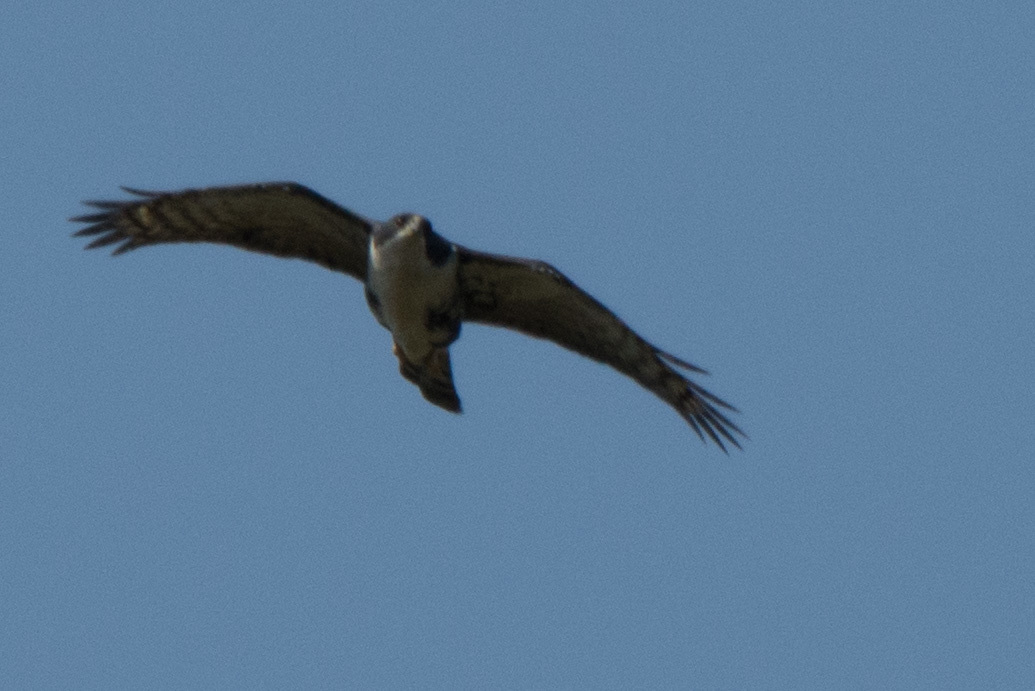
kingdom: Animalia
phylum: Chordata
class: Aves
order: Accipitriformes
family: Accipitridae
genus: Accipiter
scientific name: Accipiter melanoleucus
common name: Black sparrowhawk
